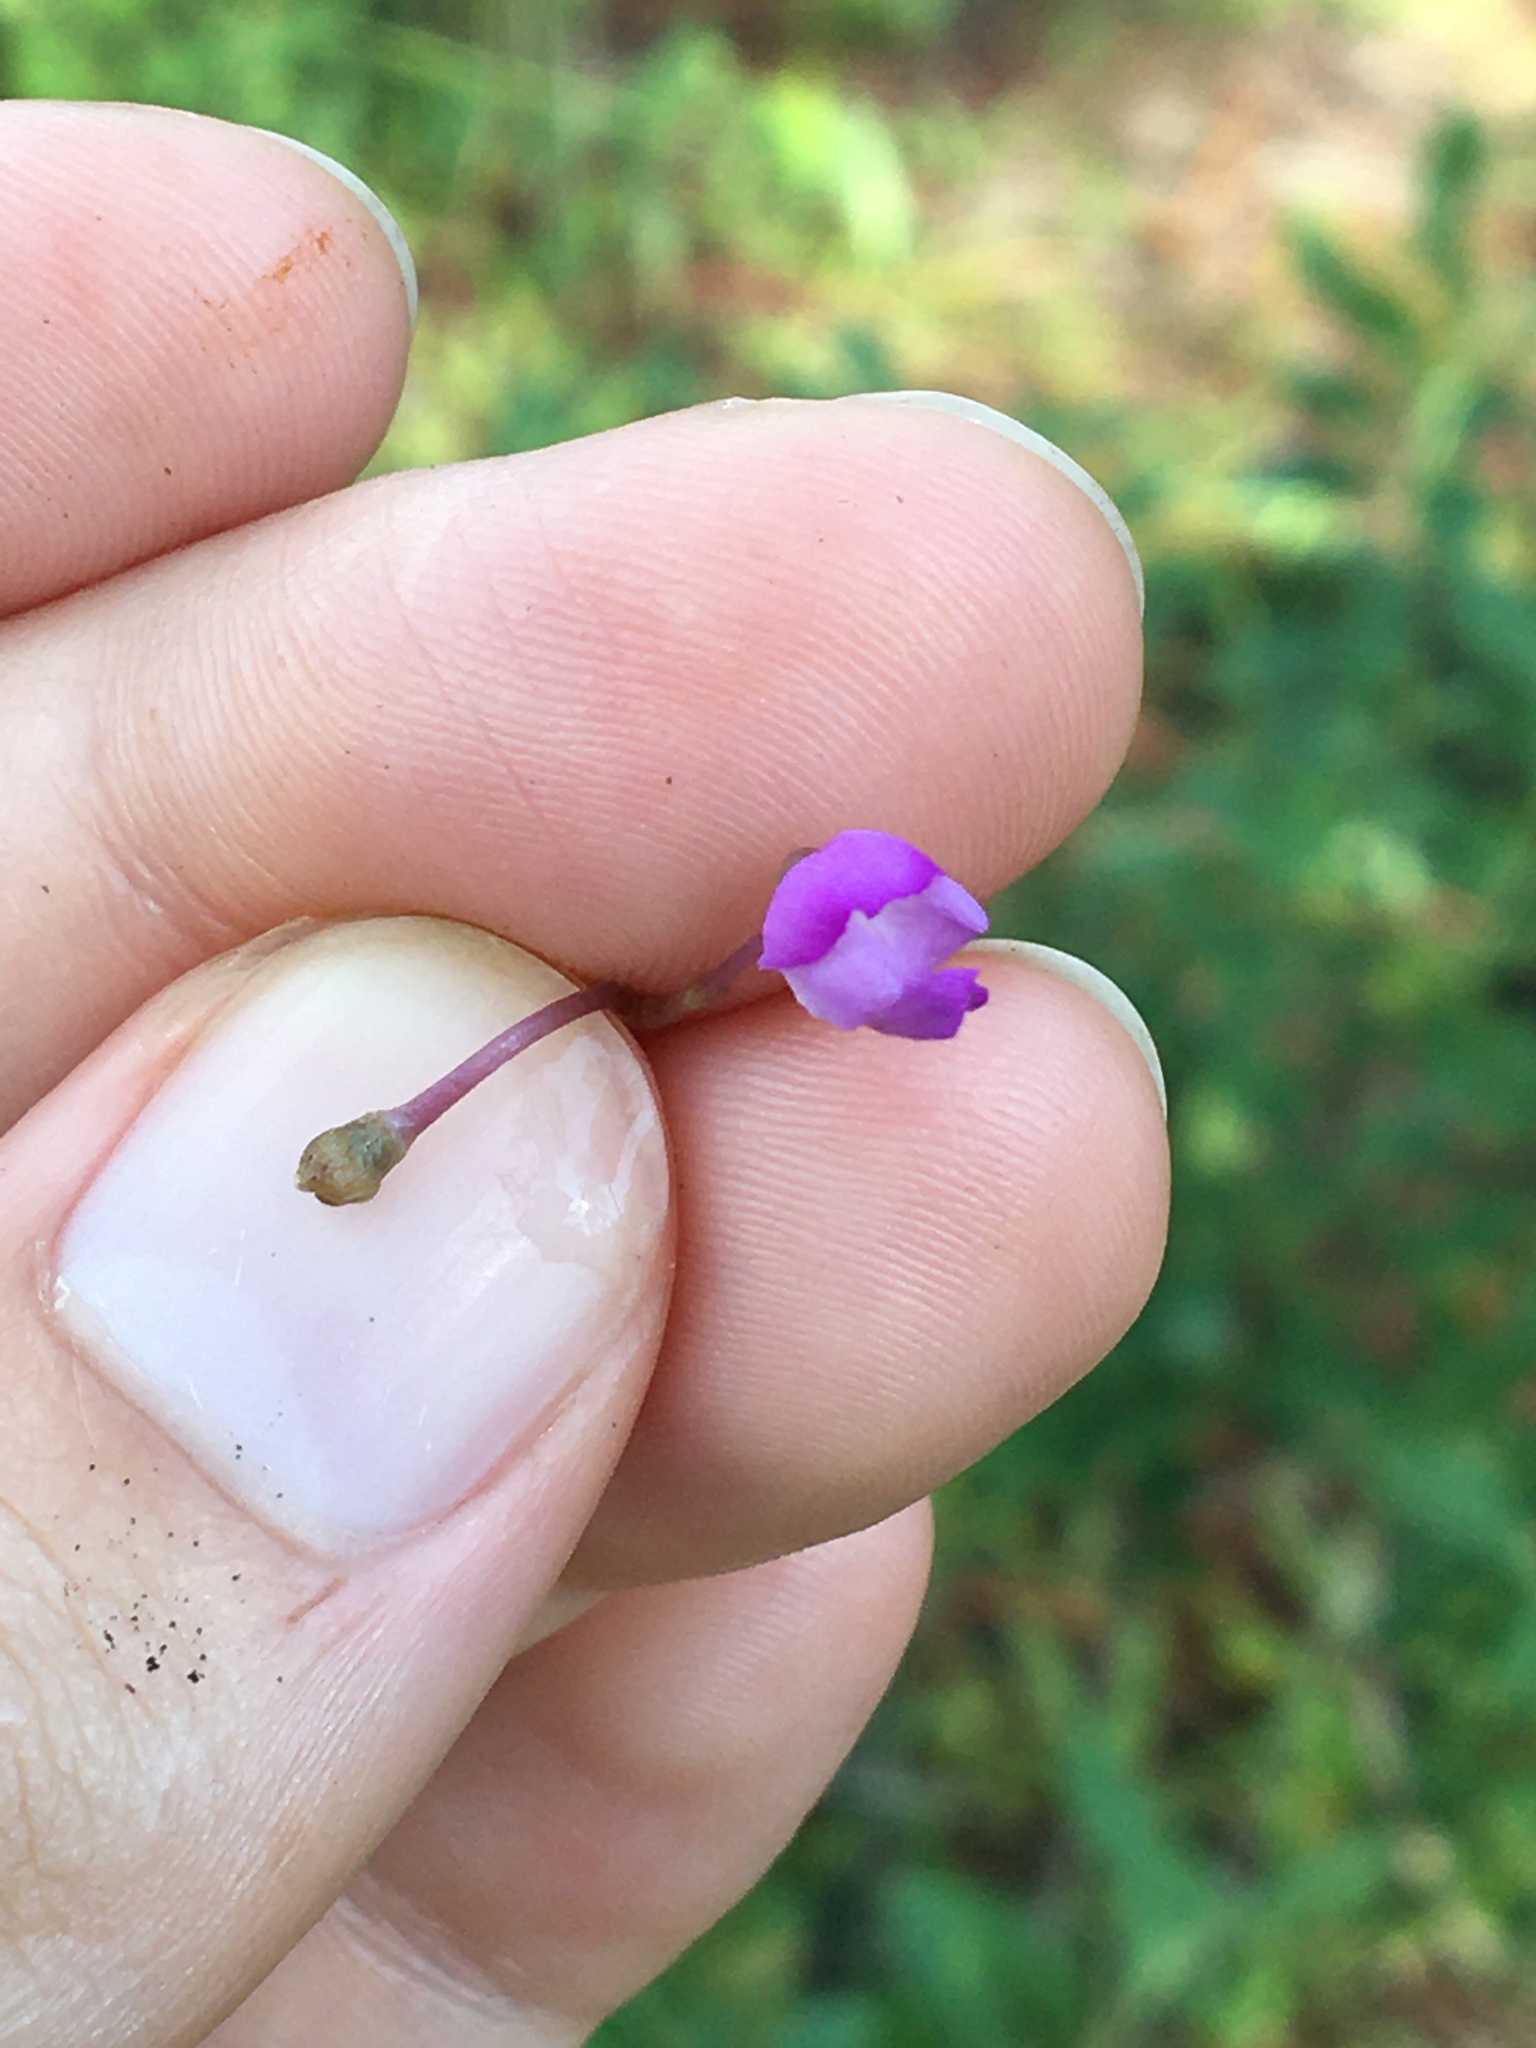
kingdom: Plantae
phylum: Tracheophyta
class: Magnoliopsida
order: Lamiales
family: Lentibulariaceae
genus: Utricularia
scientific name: Utricularia purpurea
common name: Eastern purple bladderwort
